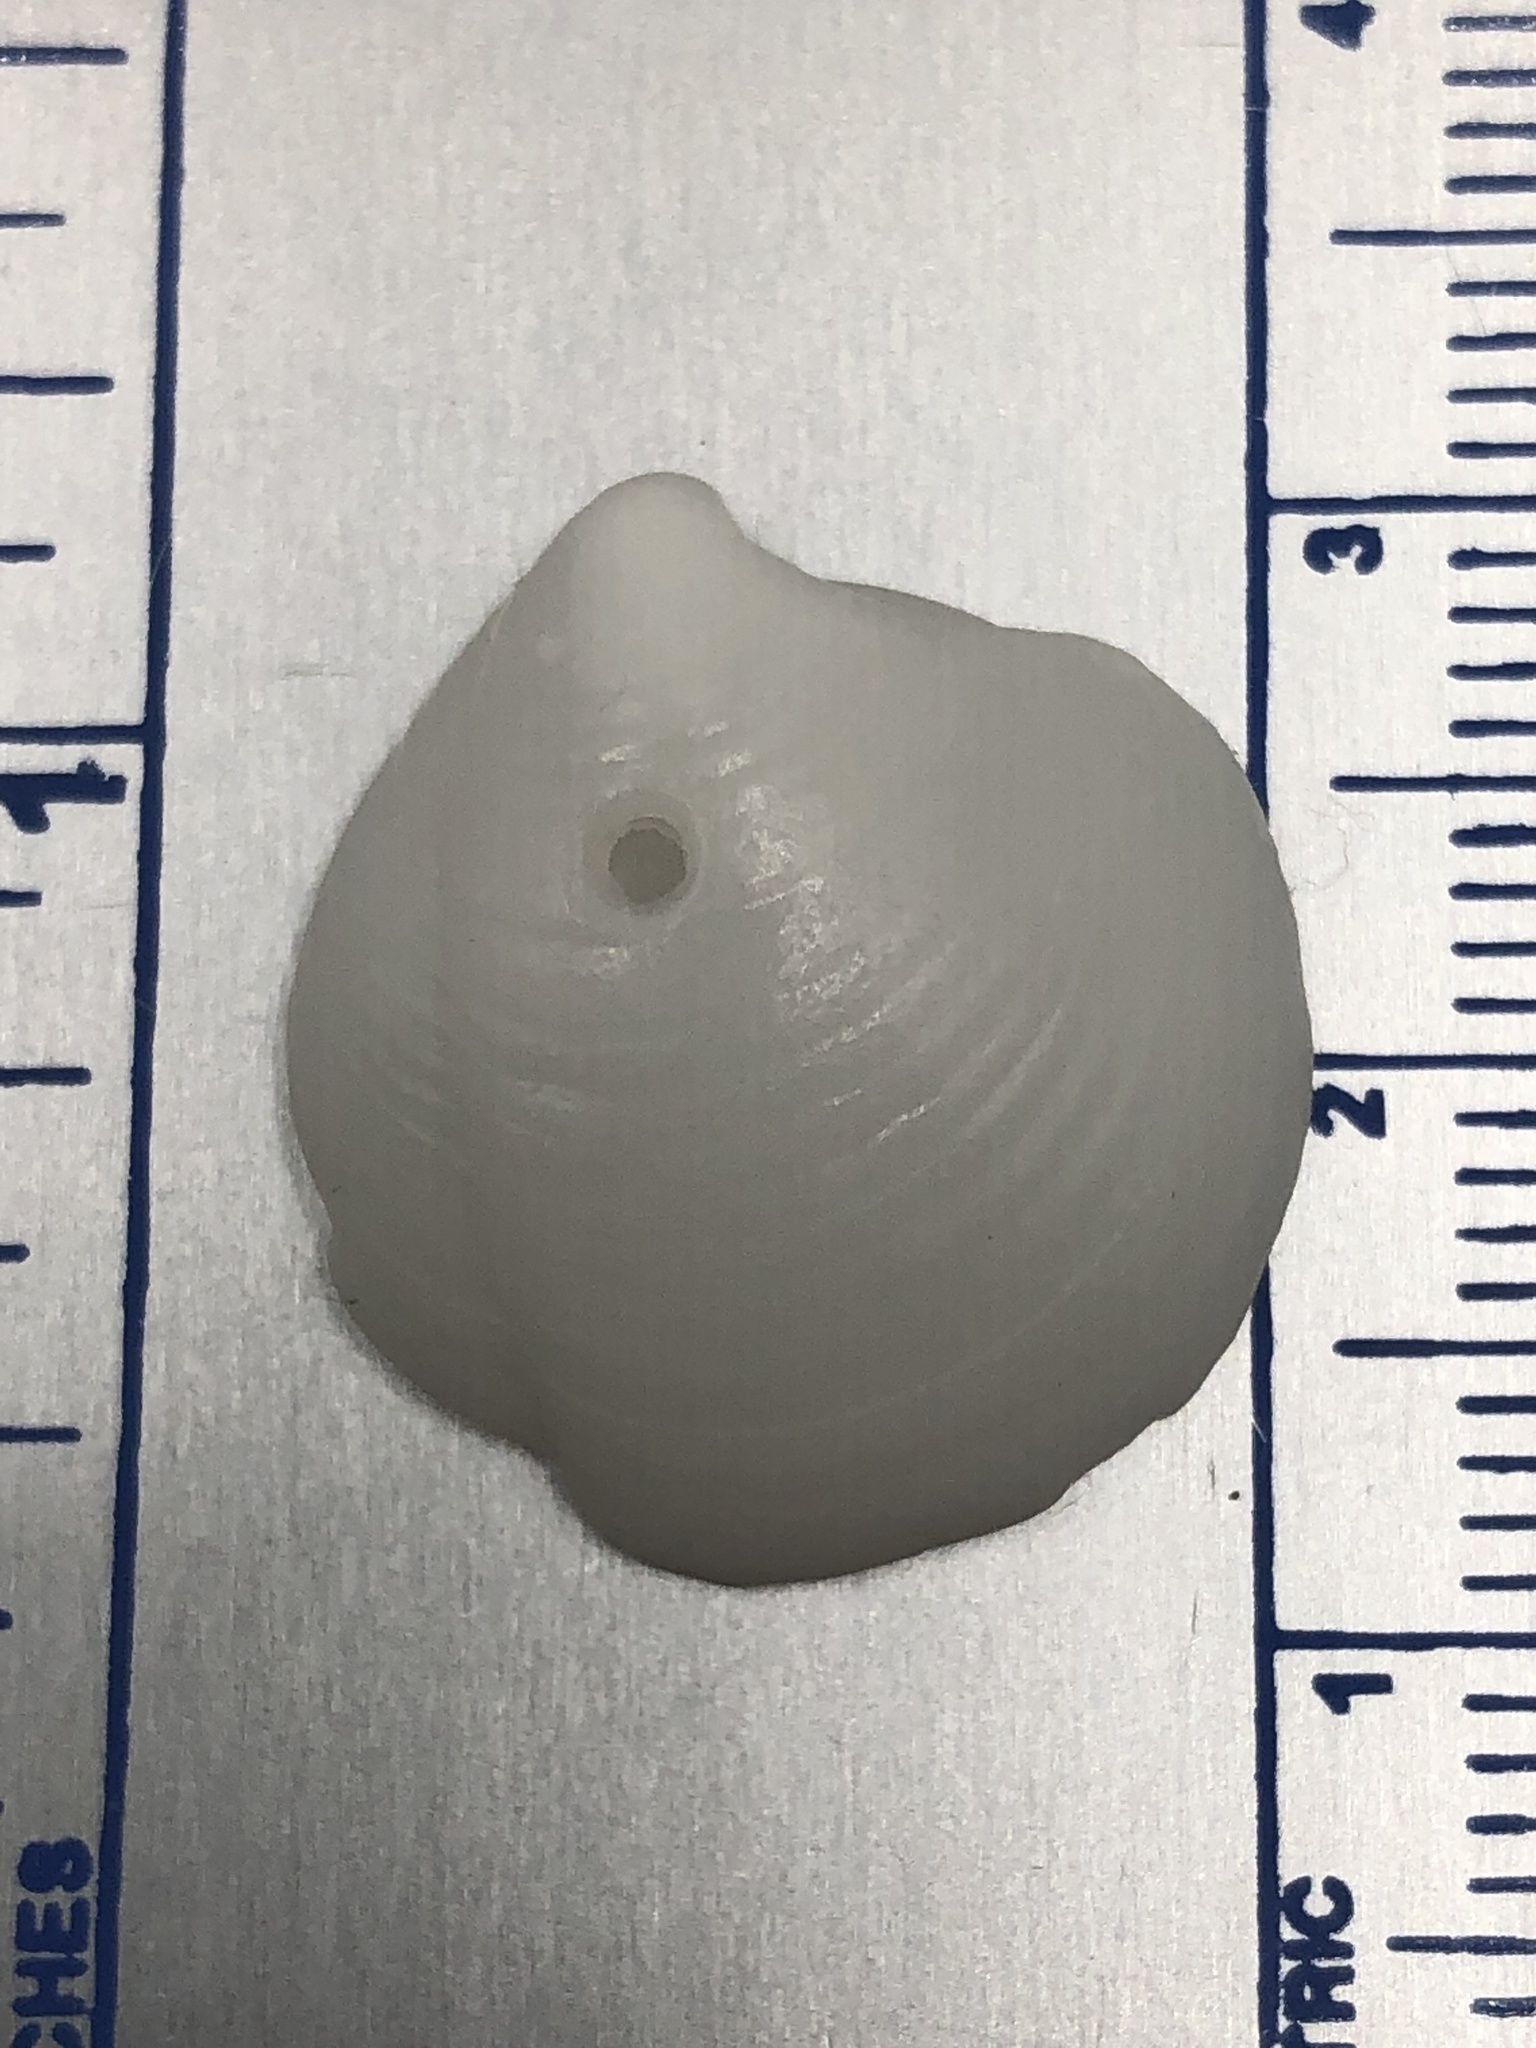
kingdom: Animalia
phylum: Mollusca
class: Bivalvia
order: Lucinida
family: Lucinidae
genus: Lucina
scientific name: Lucina pensylvanica
